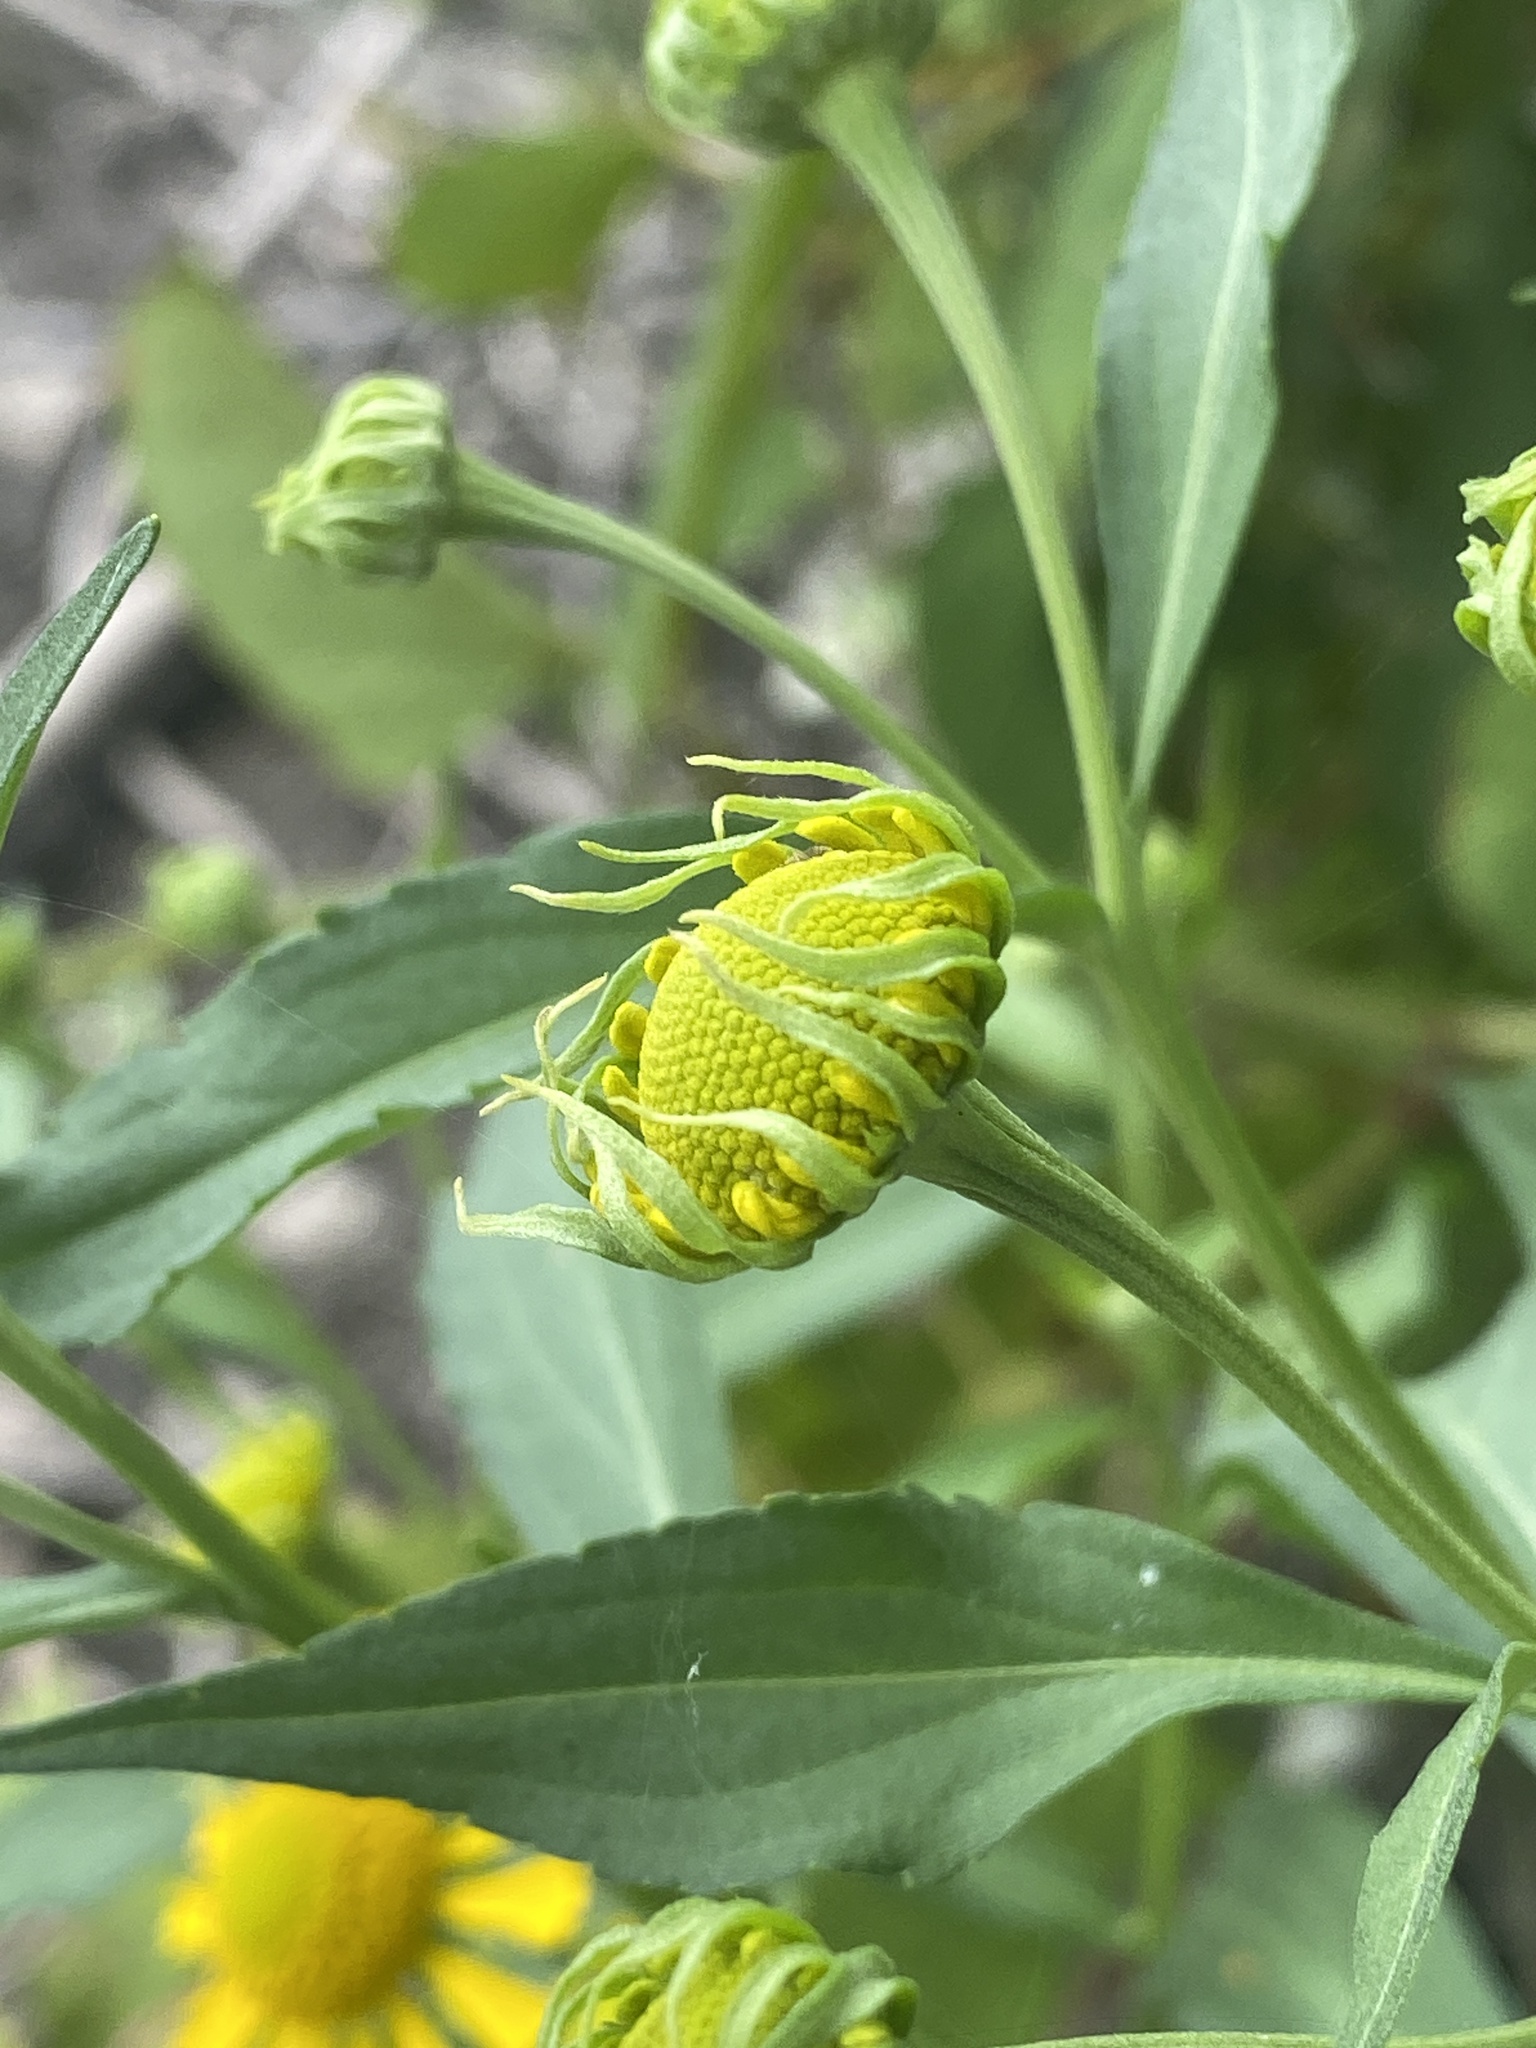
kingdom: Plantae
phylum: Tracheophyta
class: Magnoliopsida
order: Asterales
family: Asteraceae
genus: Helenium
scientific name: Helenium autumnale
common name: Sneezeweed
